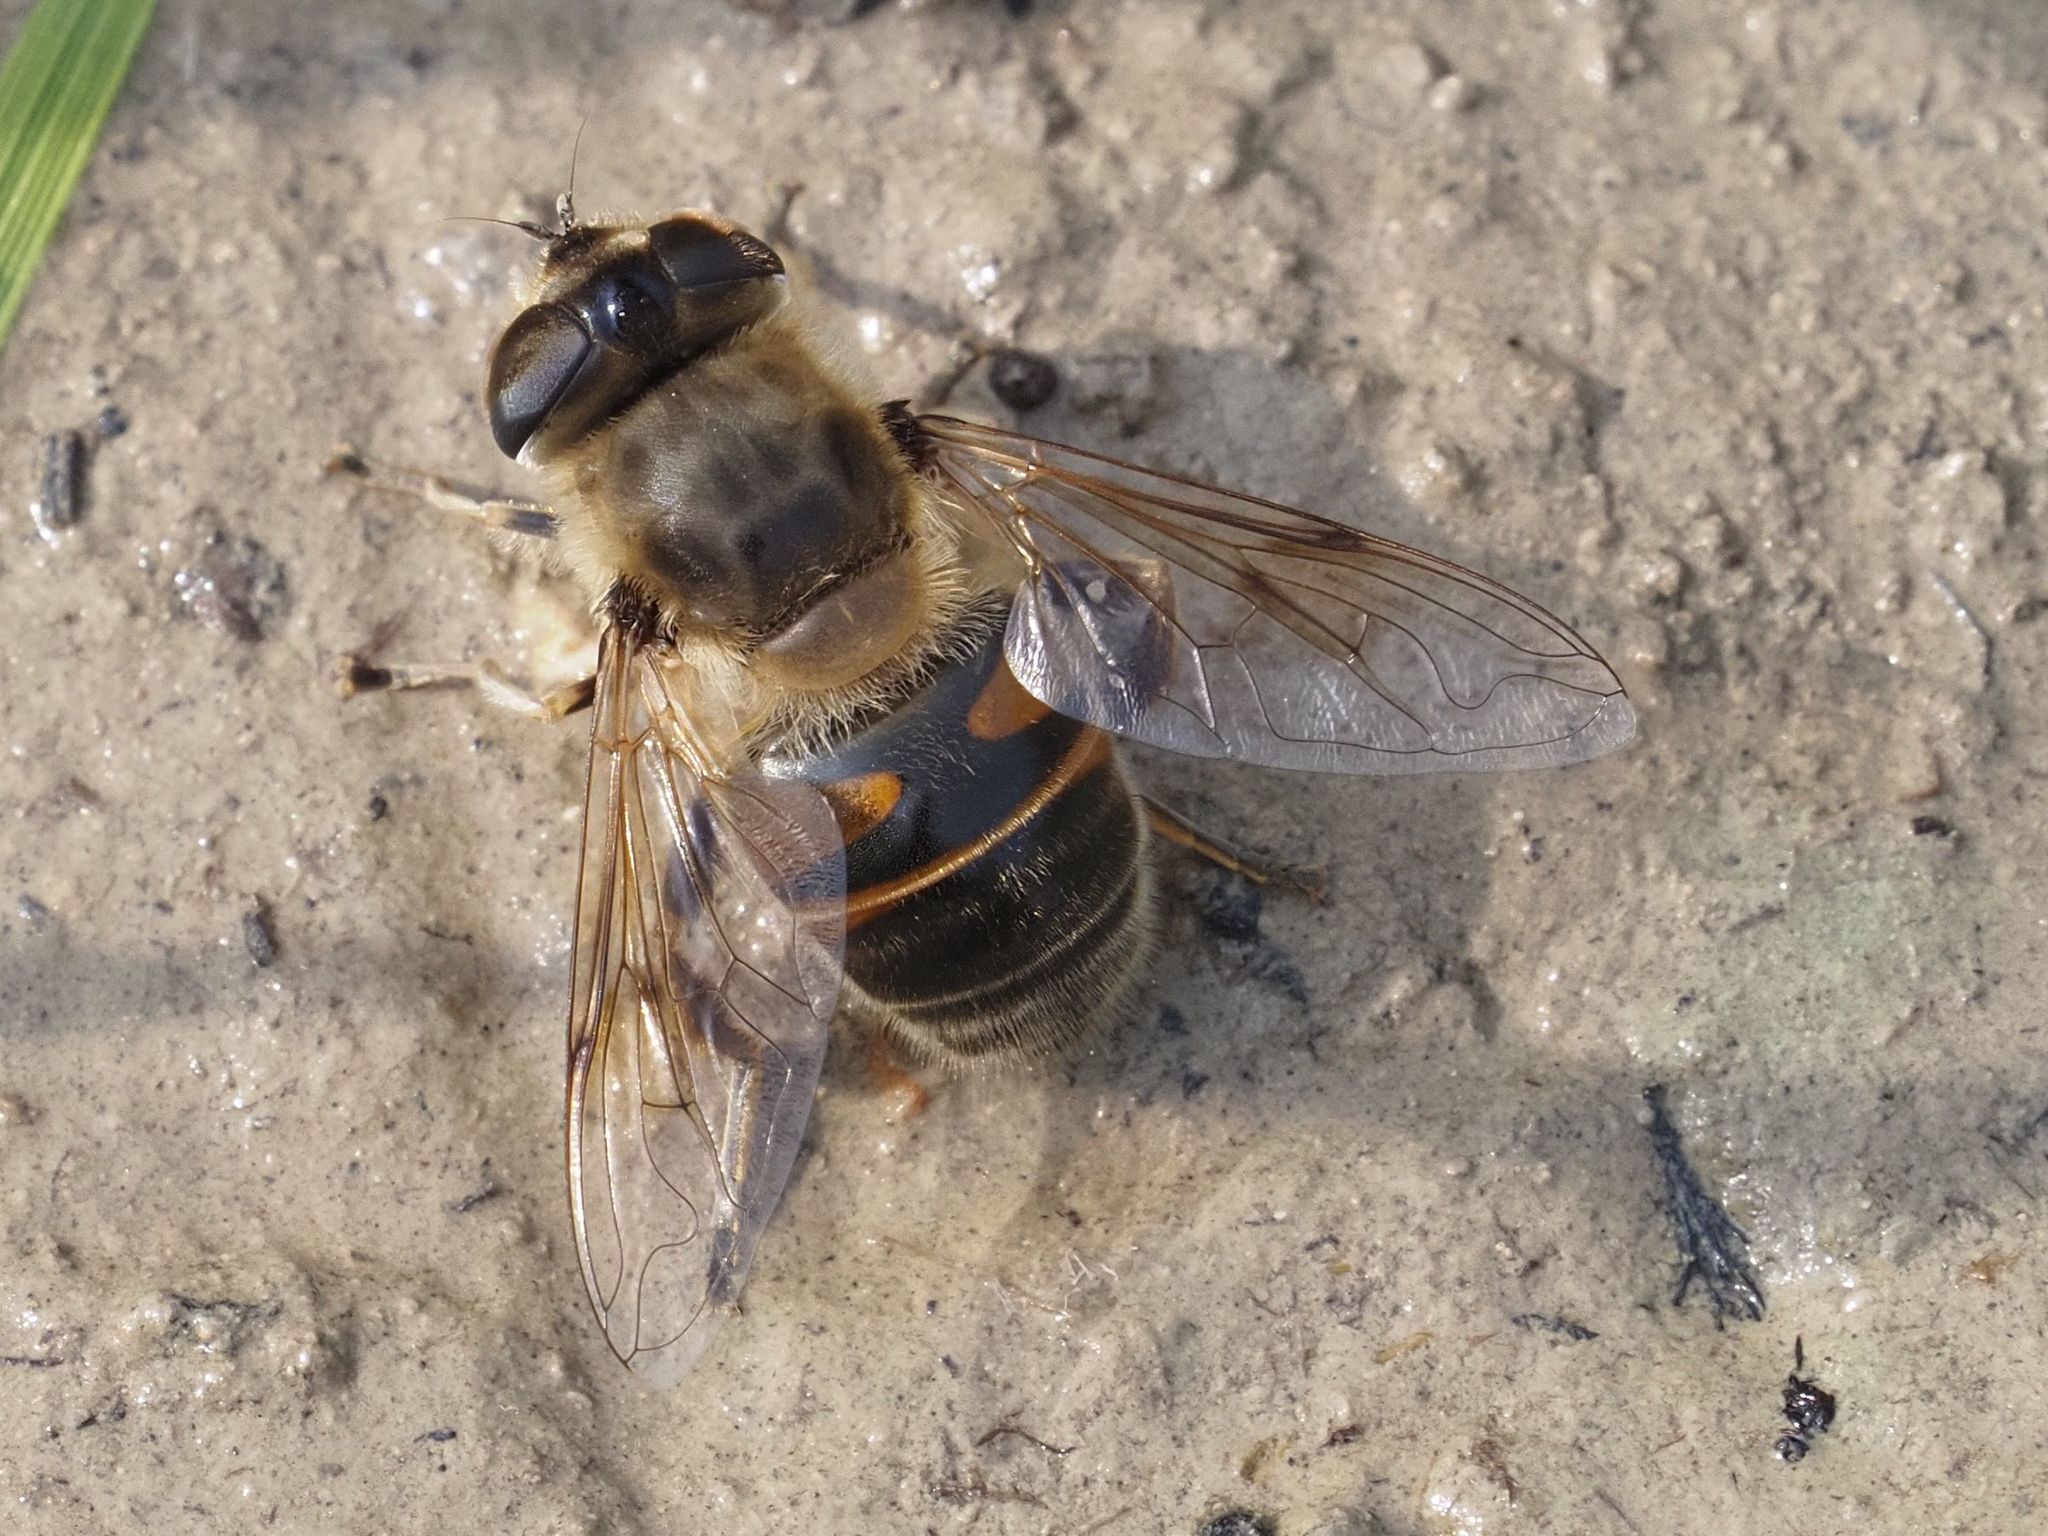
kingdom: Animalia
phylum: Arthropoda
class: Insecta
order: Diptera
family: Syrphidae
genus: Eristalis
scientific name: Eristalis tenax
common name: Drone fly
